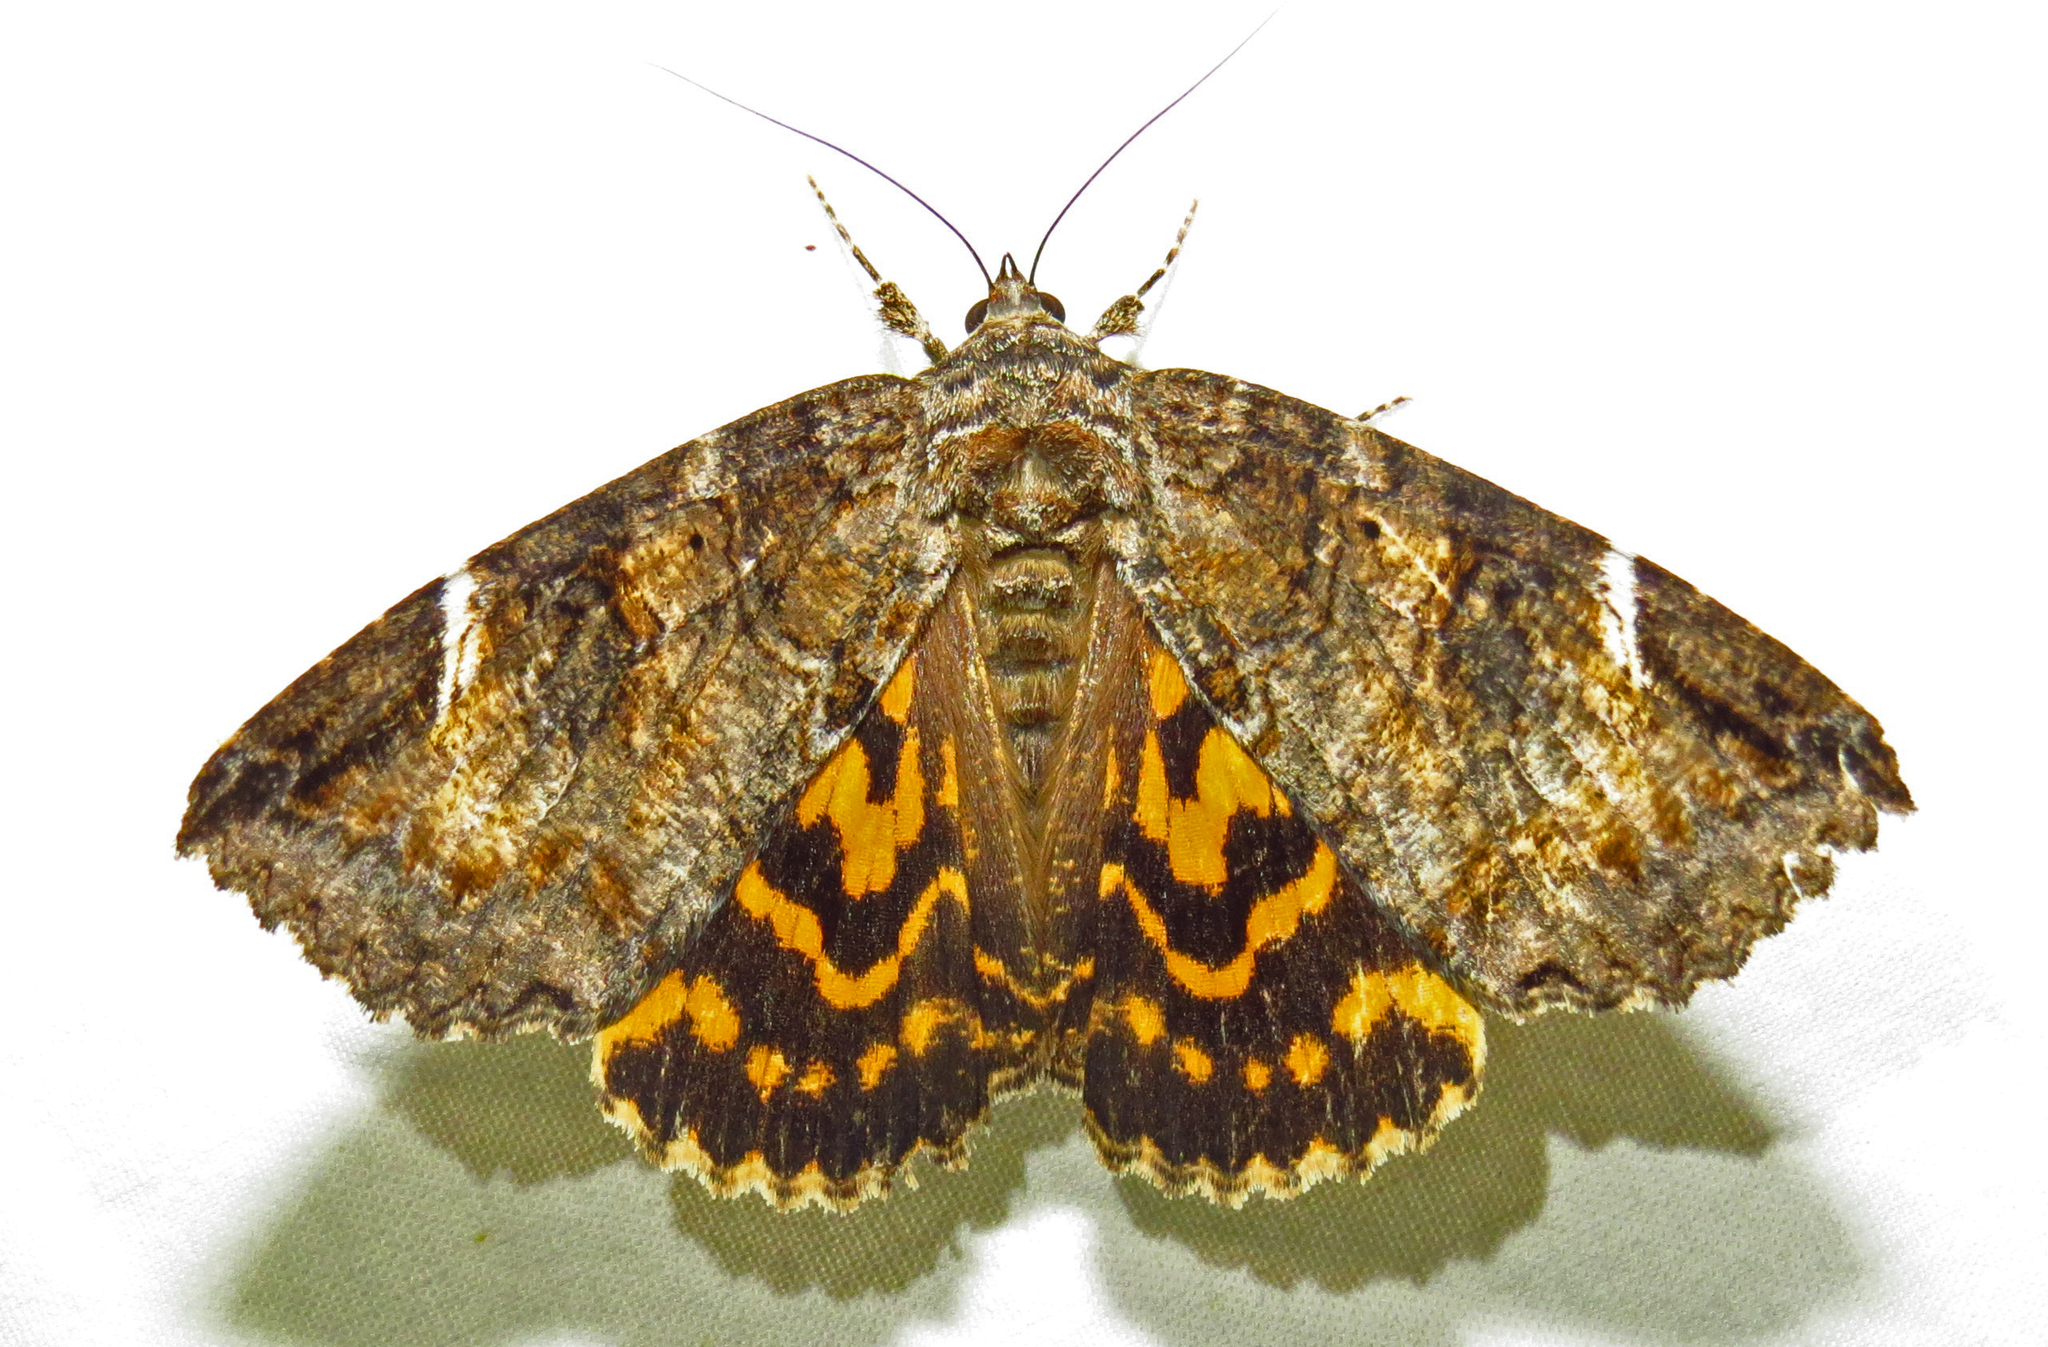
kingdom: Animalia
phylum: Arthropoda
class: Insecta
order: Lepidoptera
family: Erebidae
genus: Euparthenos
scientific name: Euparthenos nubilis
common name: Locust underwing
